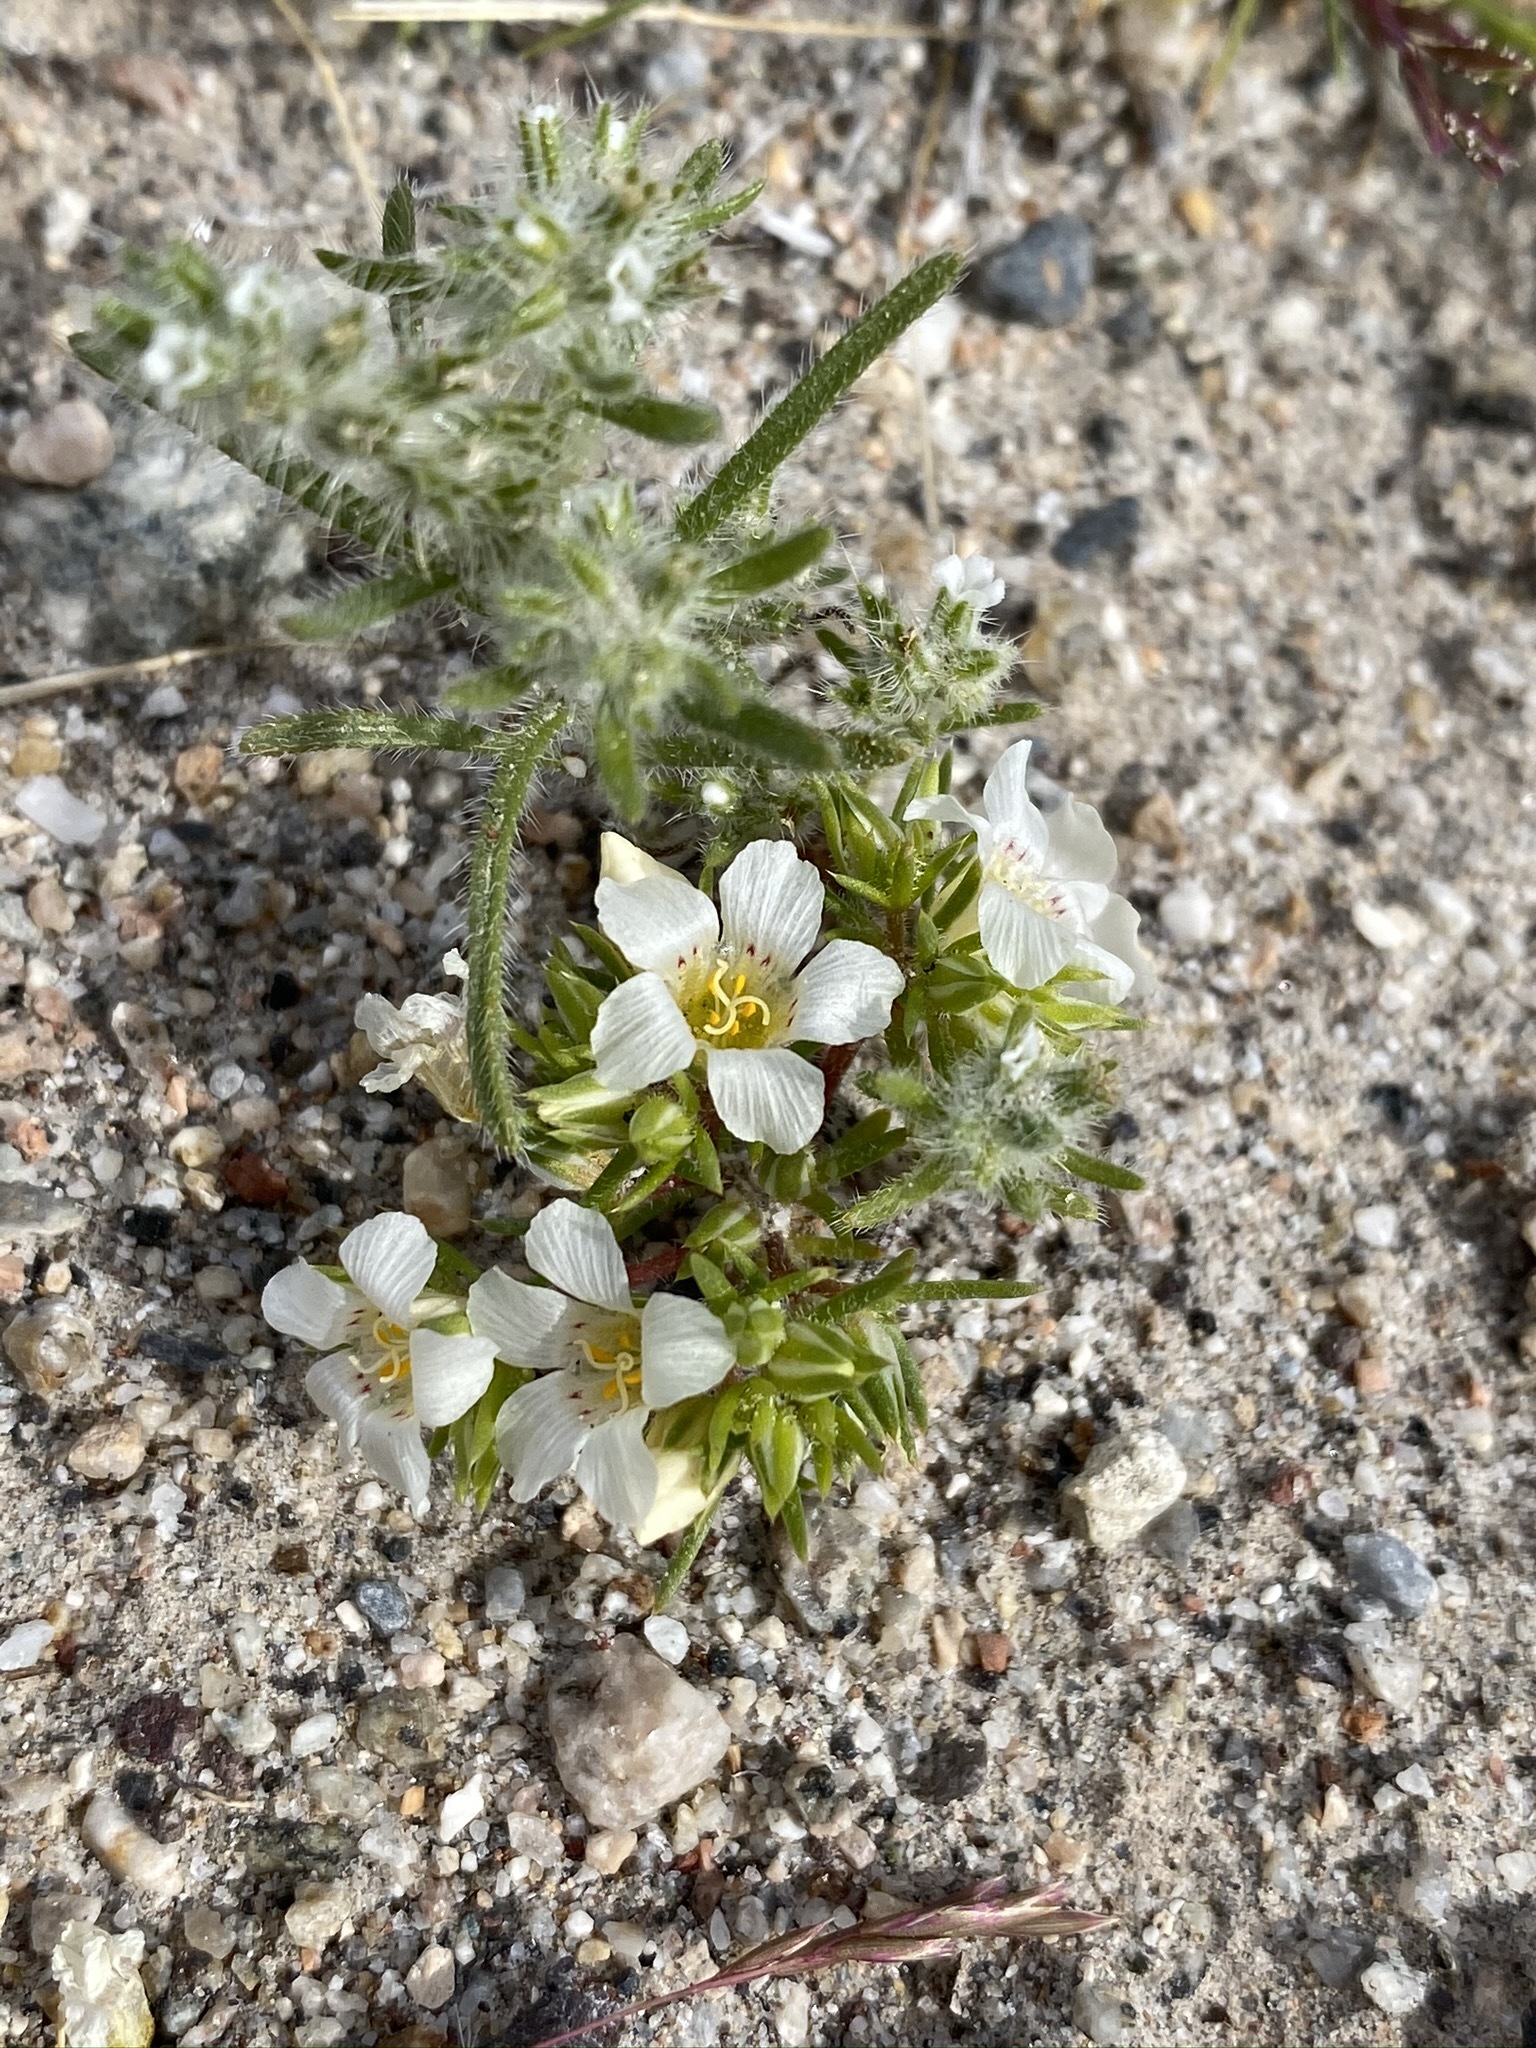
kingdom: Plantae
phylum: Tracheophyta
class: Magnoliopsida
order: Ericales
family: Polemoniaceae
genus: Linanthus
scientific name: Linanthus demissus
